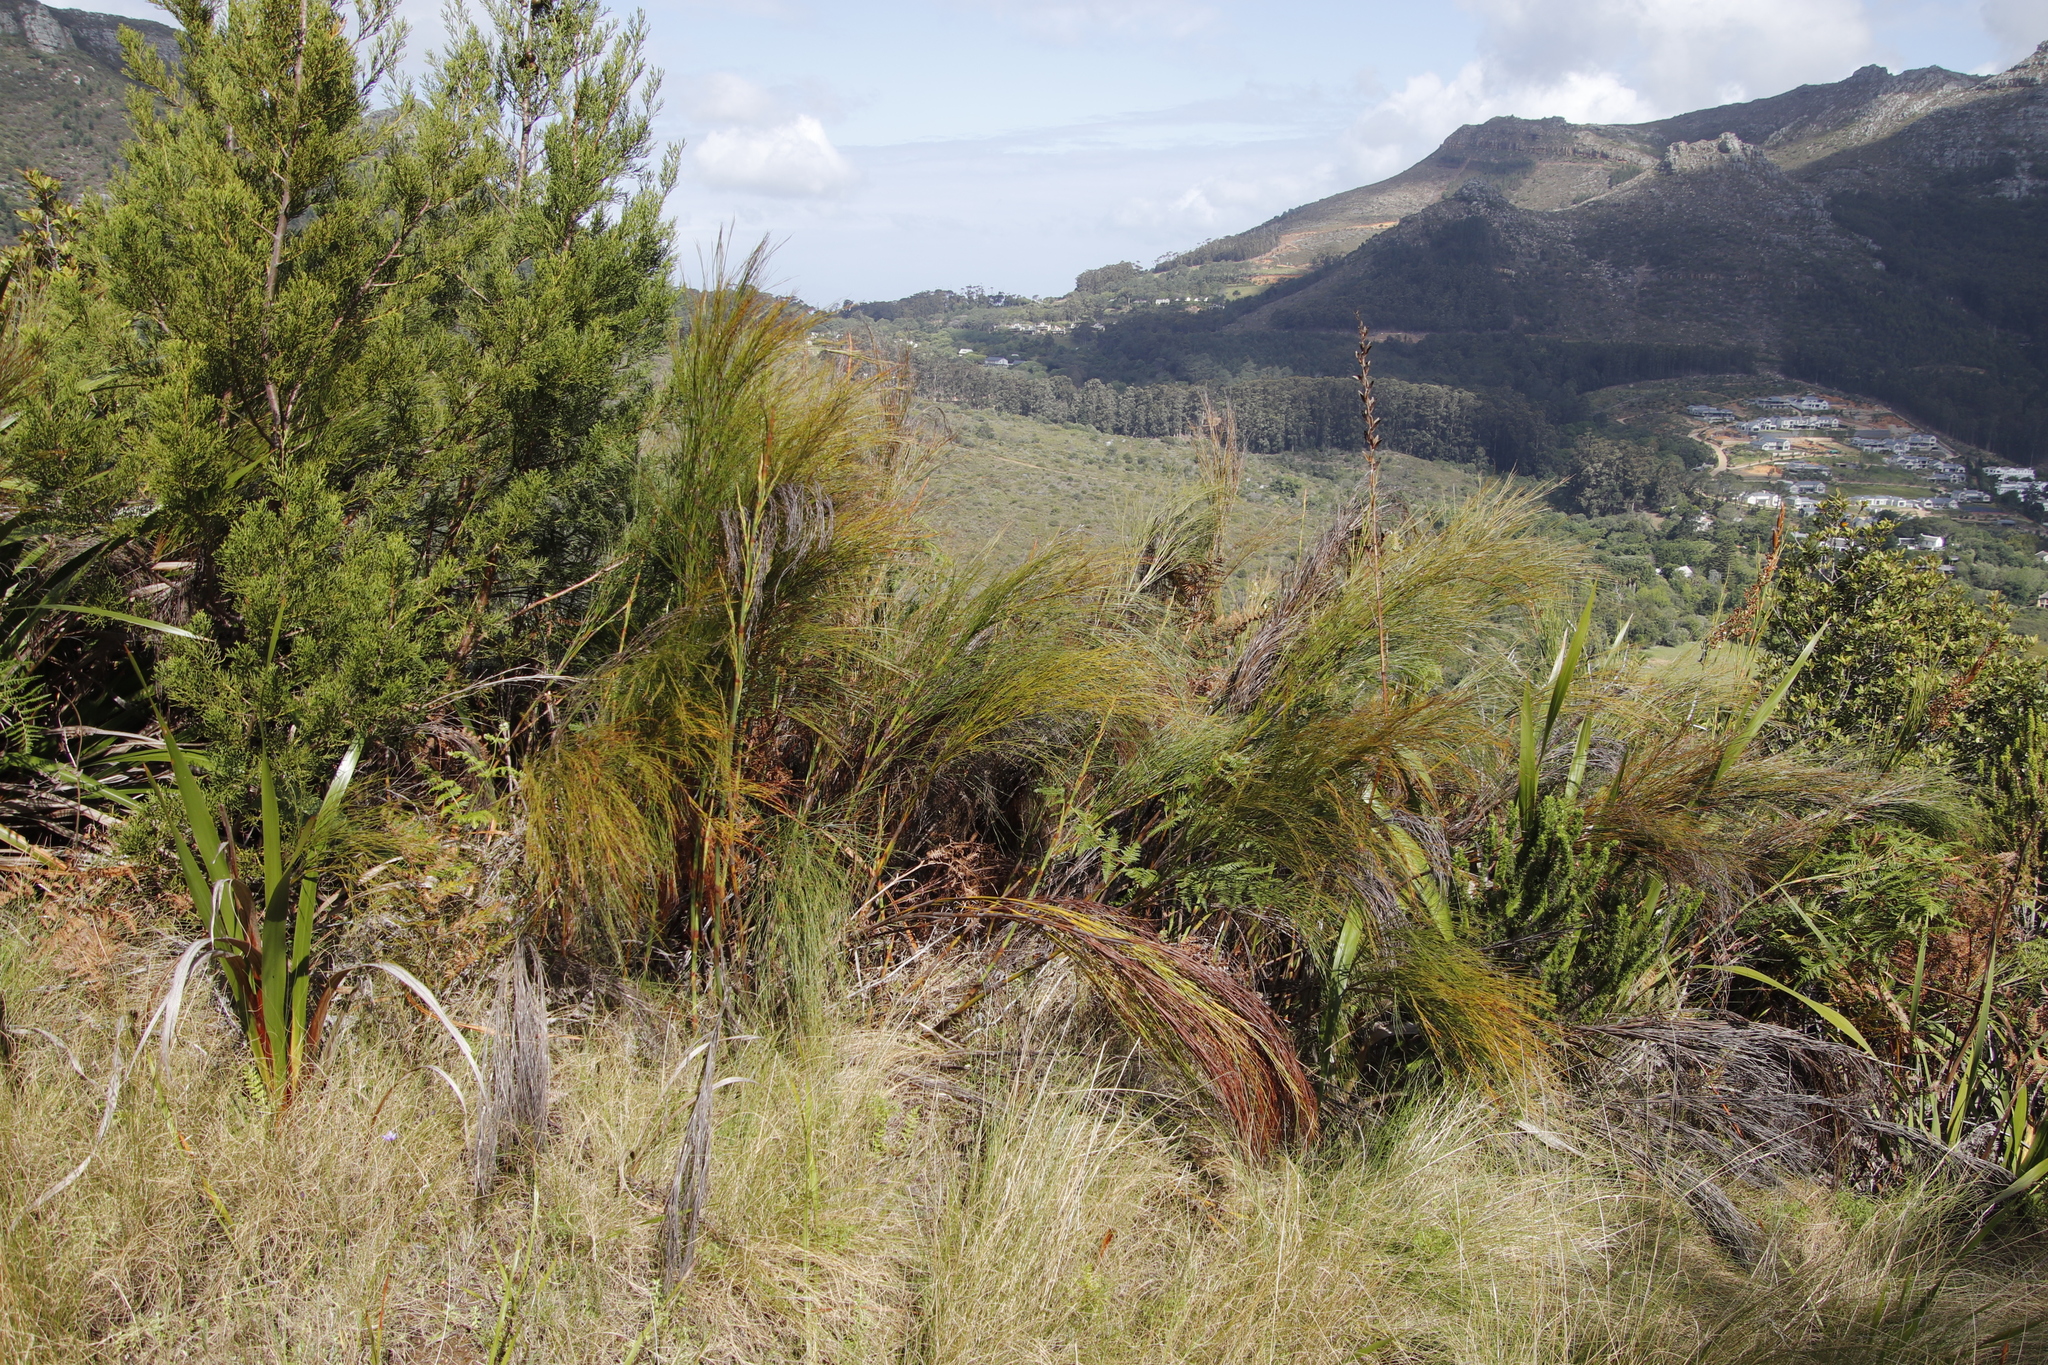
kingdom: Plantae
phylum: Tracheophyta
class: Liliopsida
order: Poales
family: Restionaceae
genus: Cannomois
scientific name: Cannomois virgata
